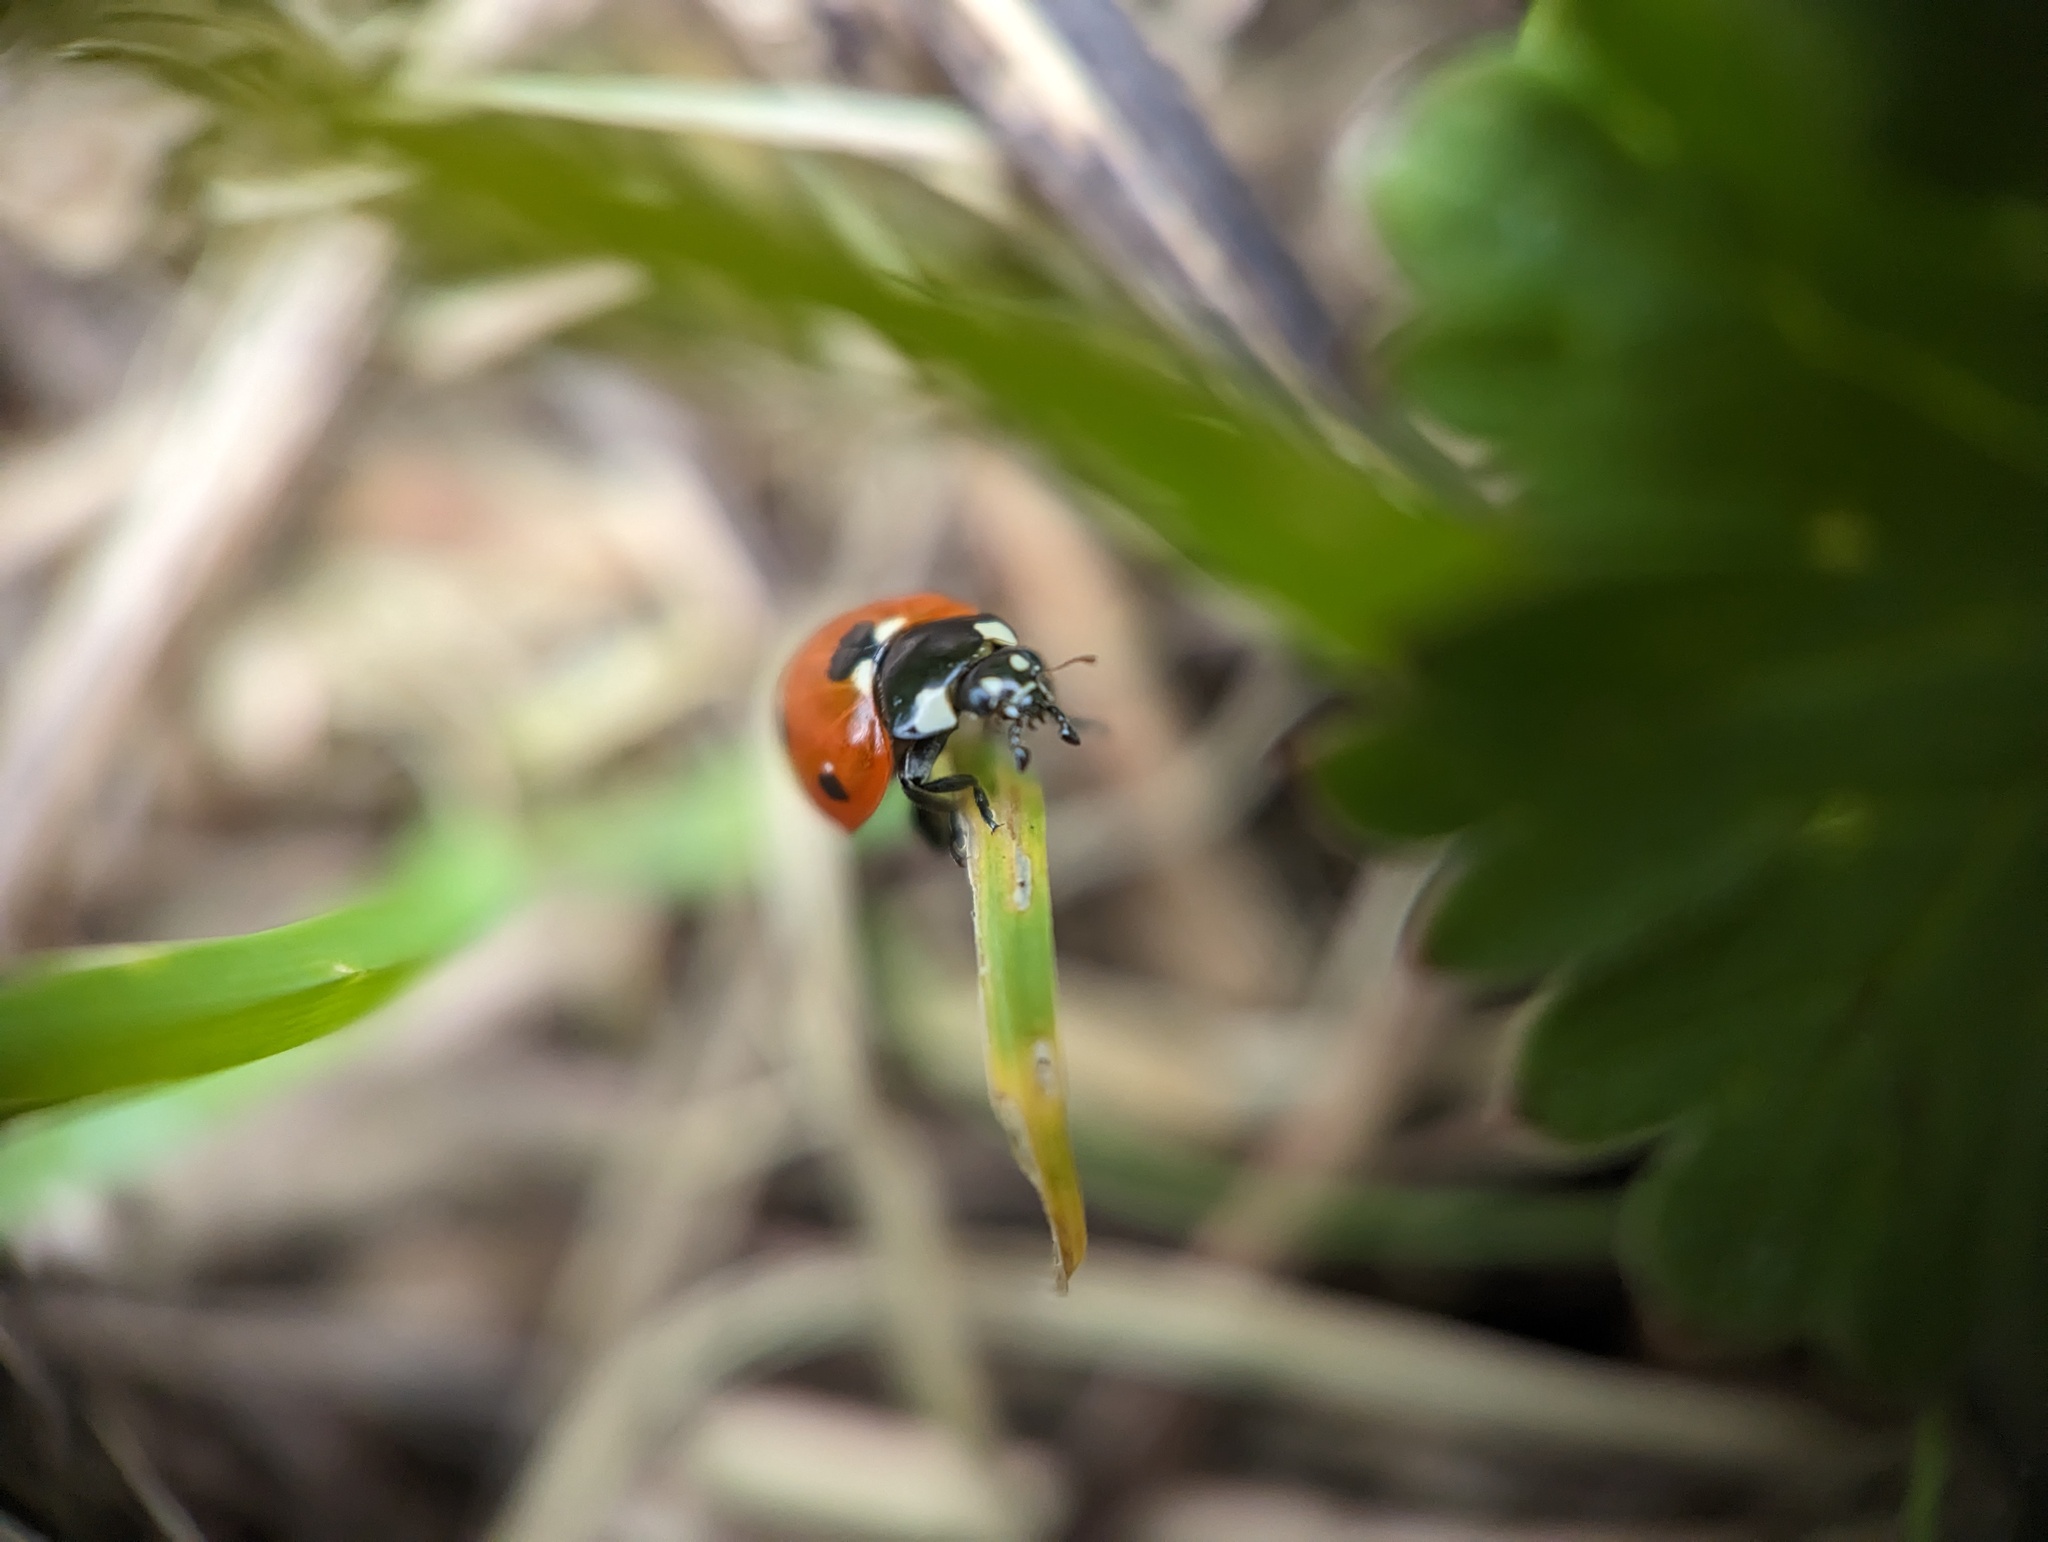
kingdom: Animalia
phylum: Arthropoda
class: Insecta
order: Coleoptera
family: Coccinellidae
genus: Coccinella
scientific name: Coccinella septempunctata
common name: Sevenspotted lady beetle
